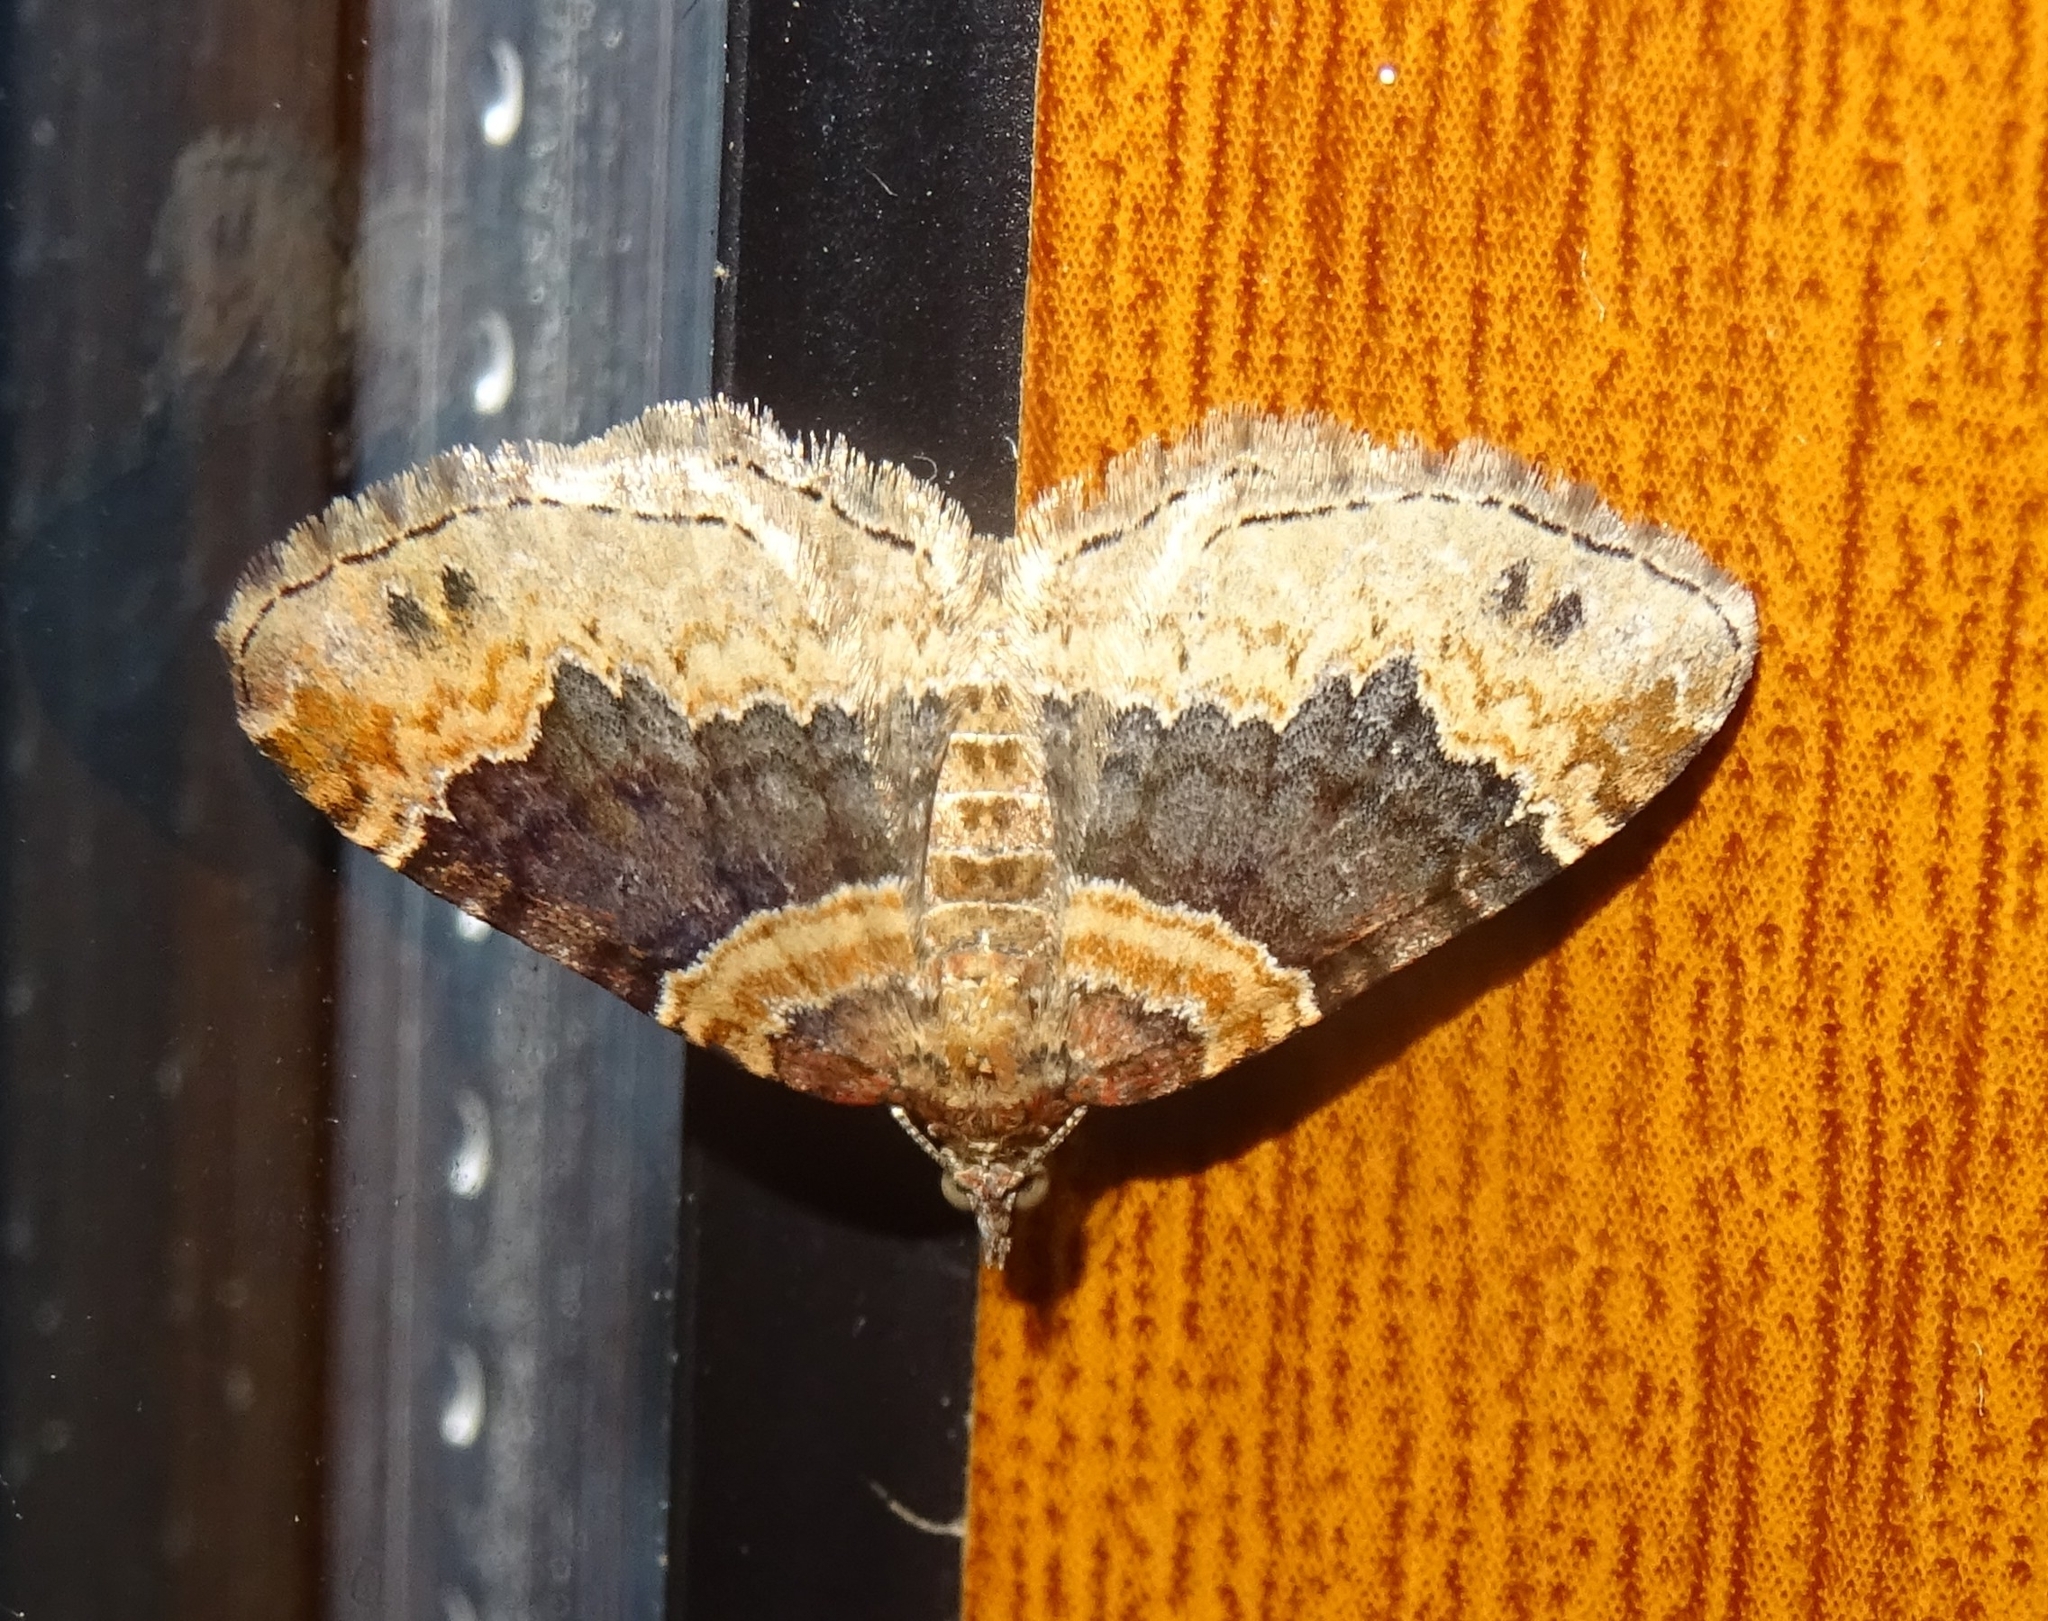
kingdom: Animalia
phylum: Arthropoda
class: Insecta
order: Lepidoptera
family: Geometridae
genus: Xanthorhoe
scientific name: Xanthorhoe ferrugata
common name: Dark-barred twin-spot carpet
